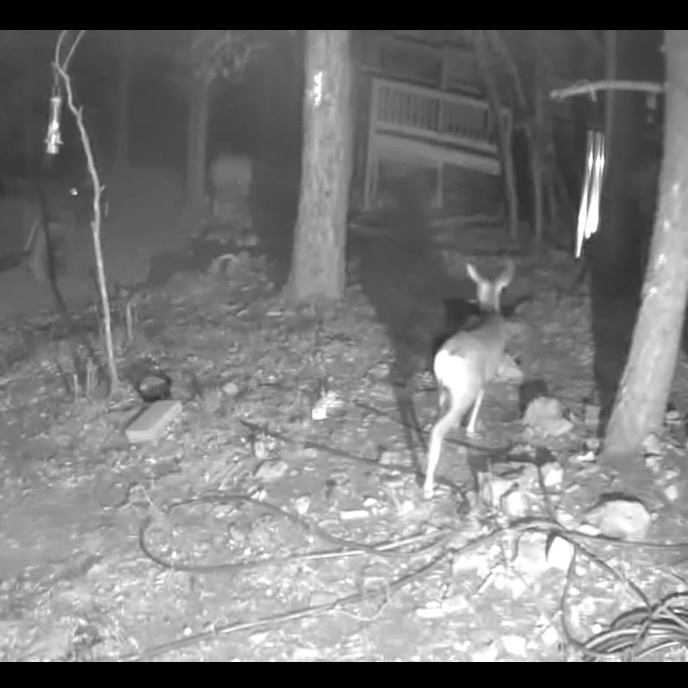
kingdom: Animalia
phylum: Chordata
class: Mammalia
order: Artiodactyla
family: Cervidae
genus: Odocoileus
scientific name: Odocoileus hemionus
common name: Mule deer
